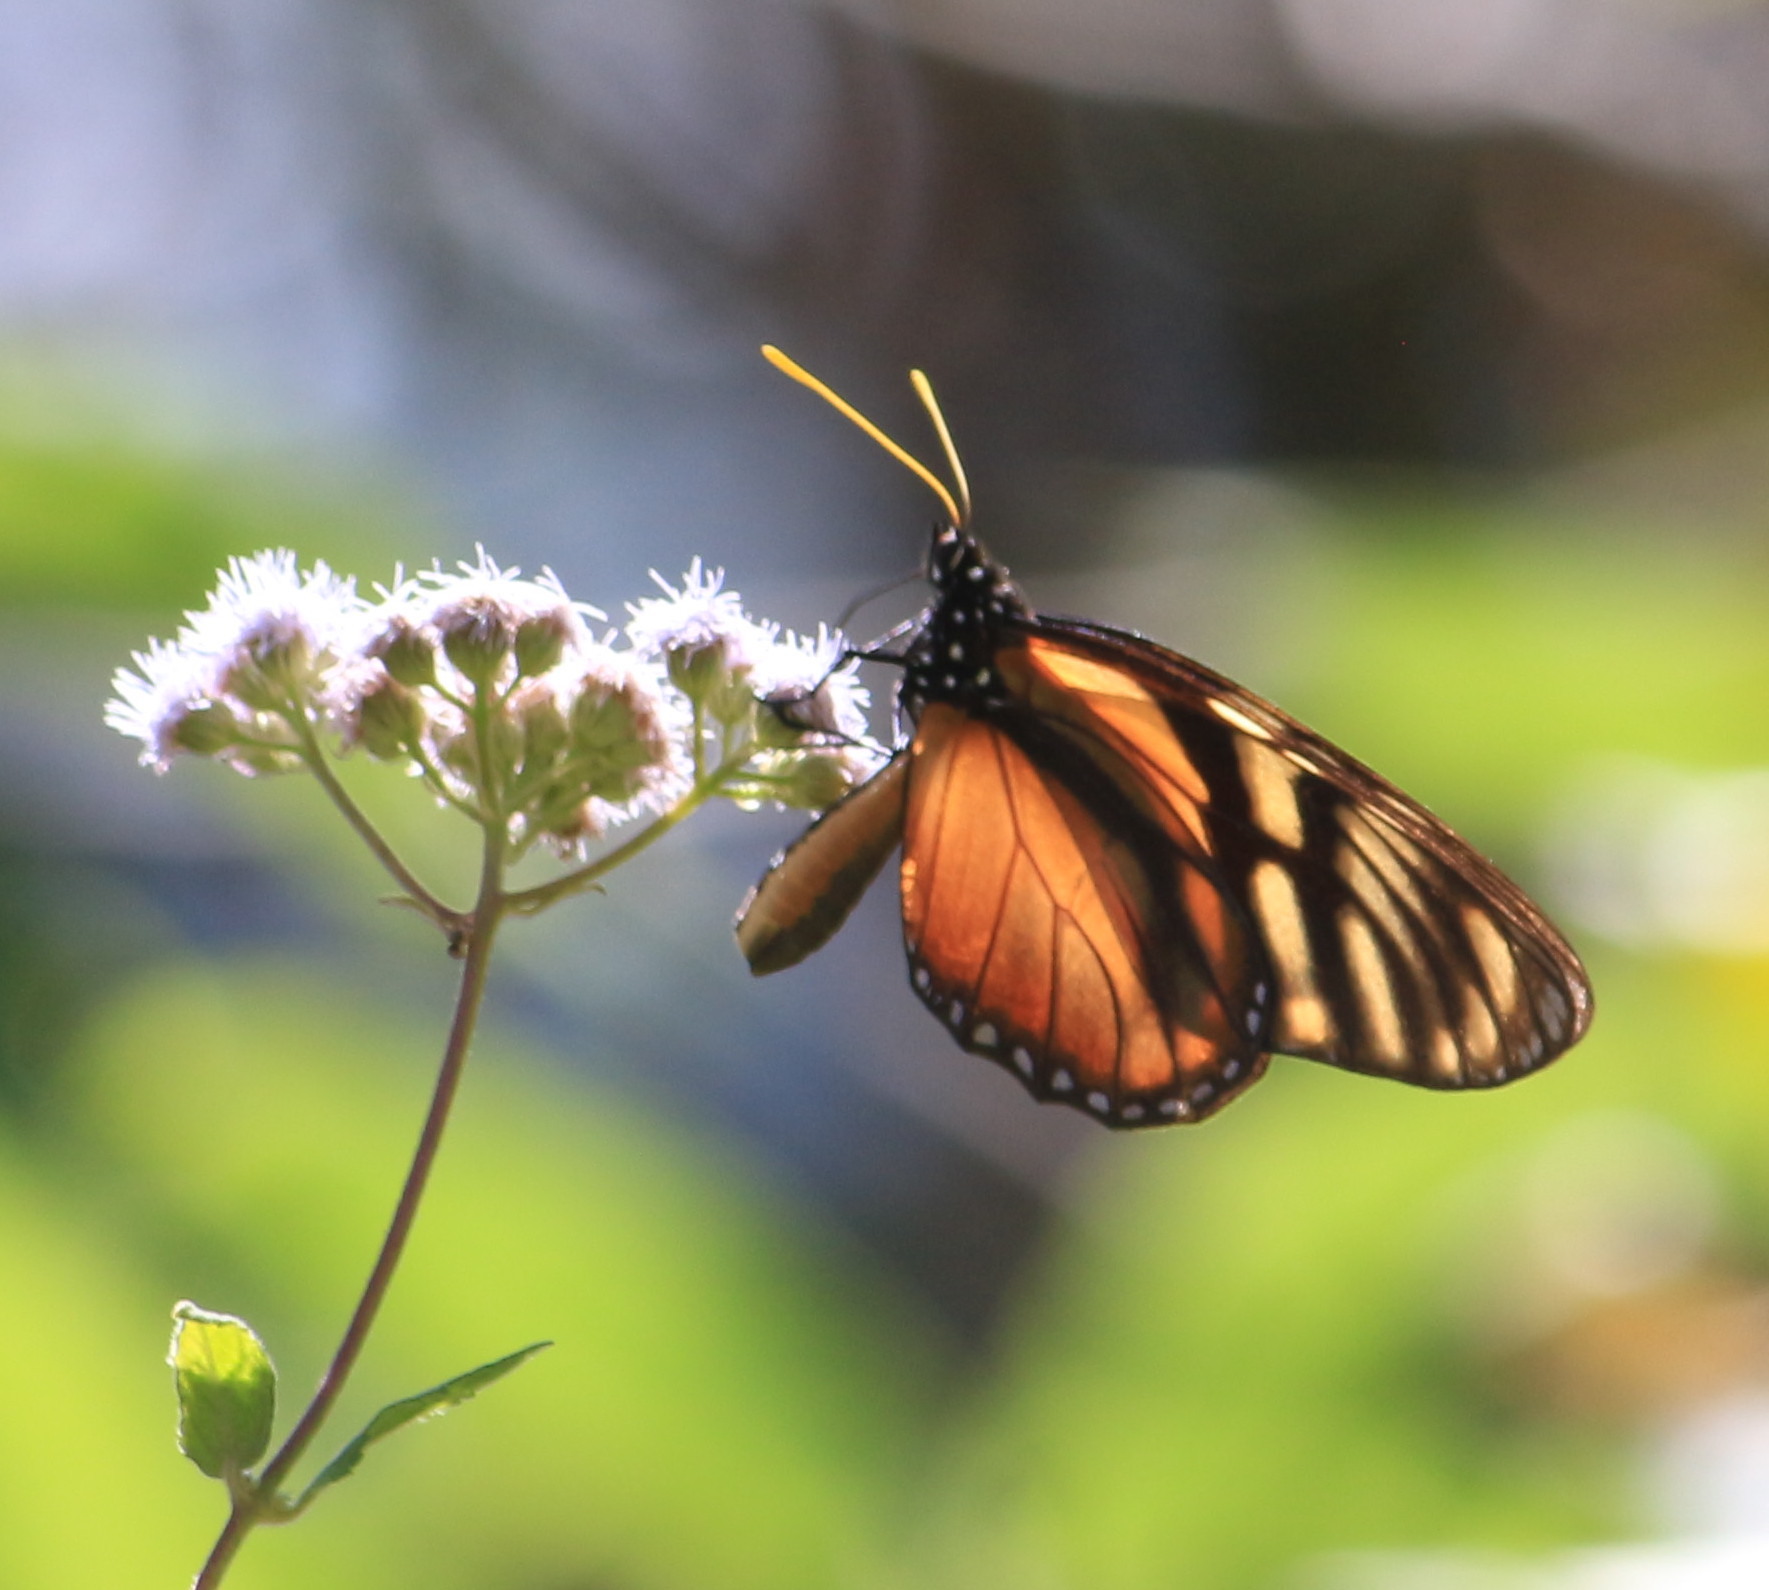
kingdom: Animalia
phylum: Arthropoda
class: Insecta
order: Lepidoptera
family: Nymphalidae
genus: Lycorea
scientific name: Lycorea ilione
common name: Clearwing mimic-queen
